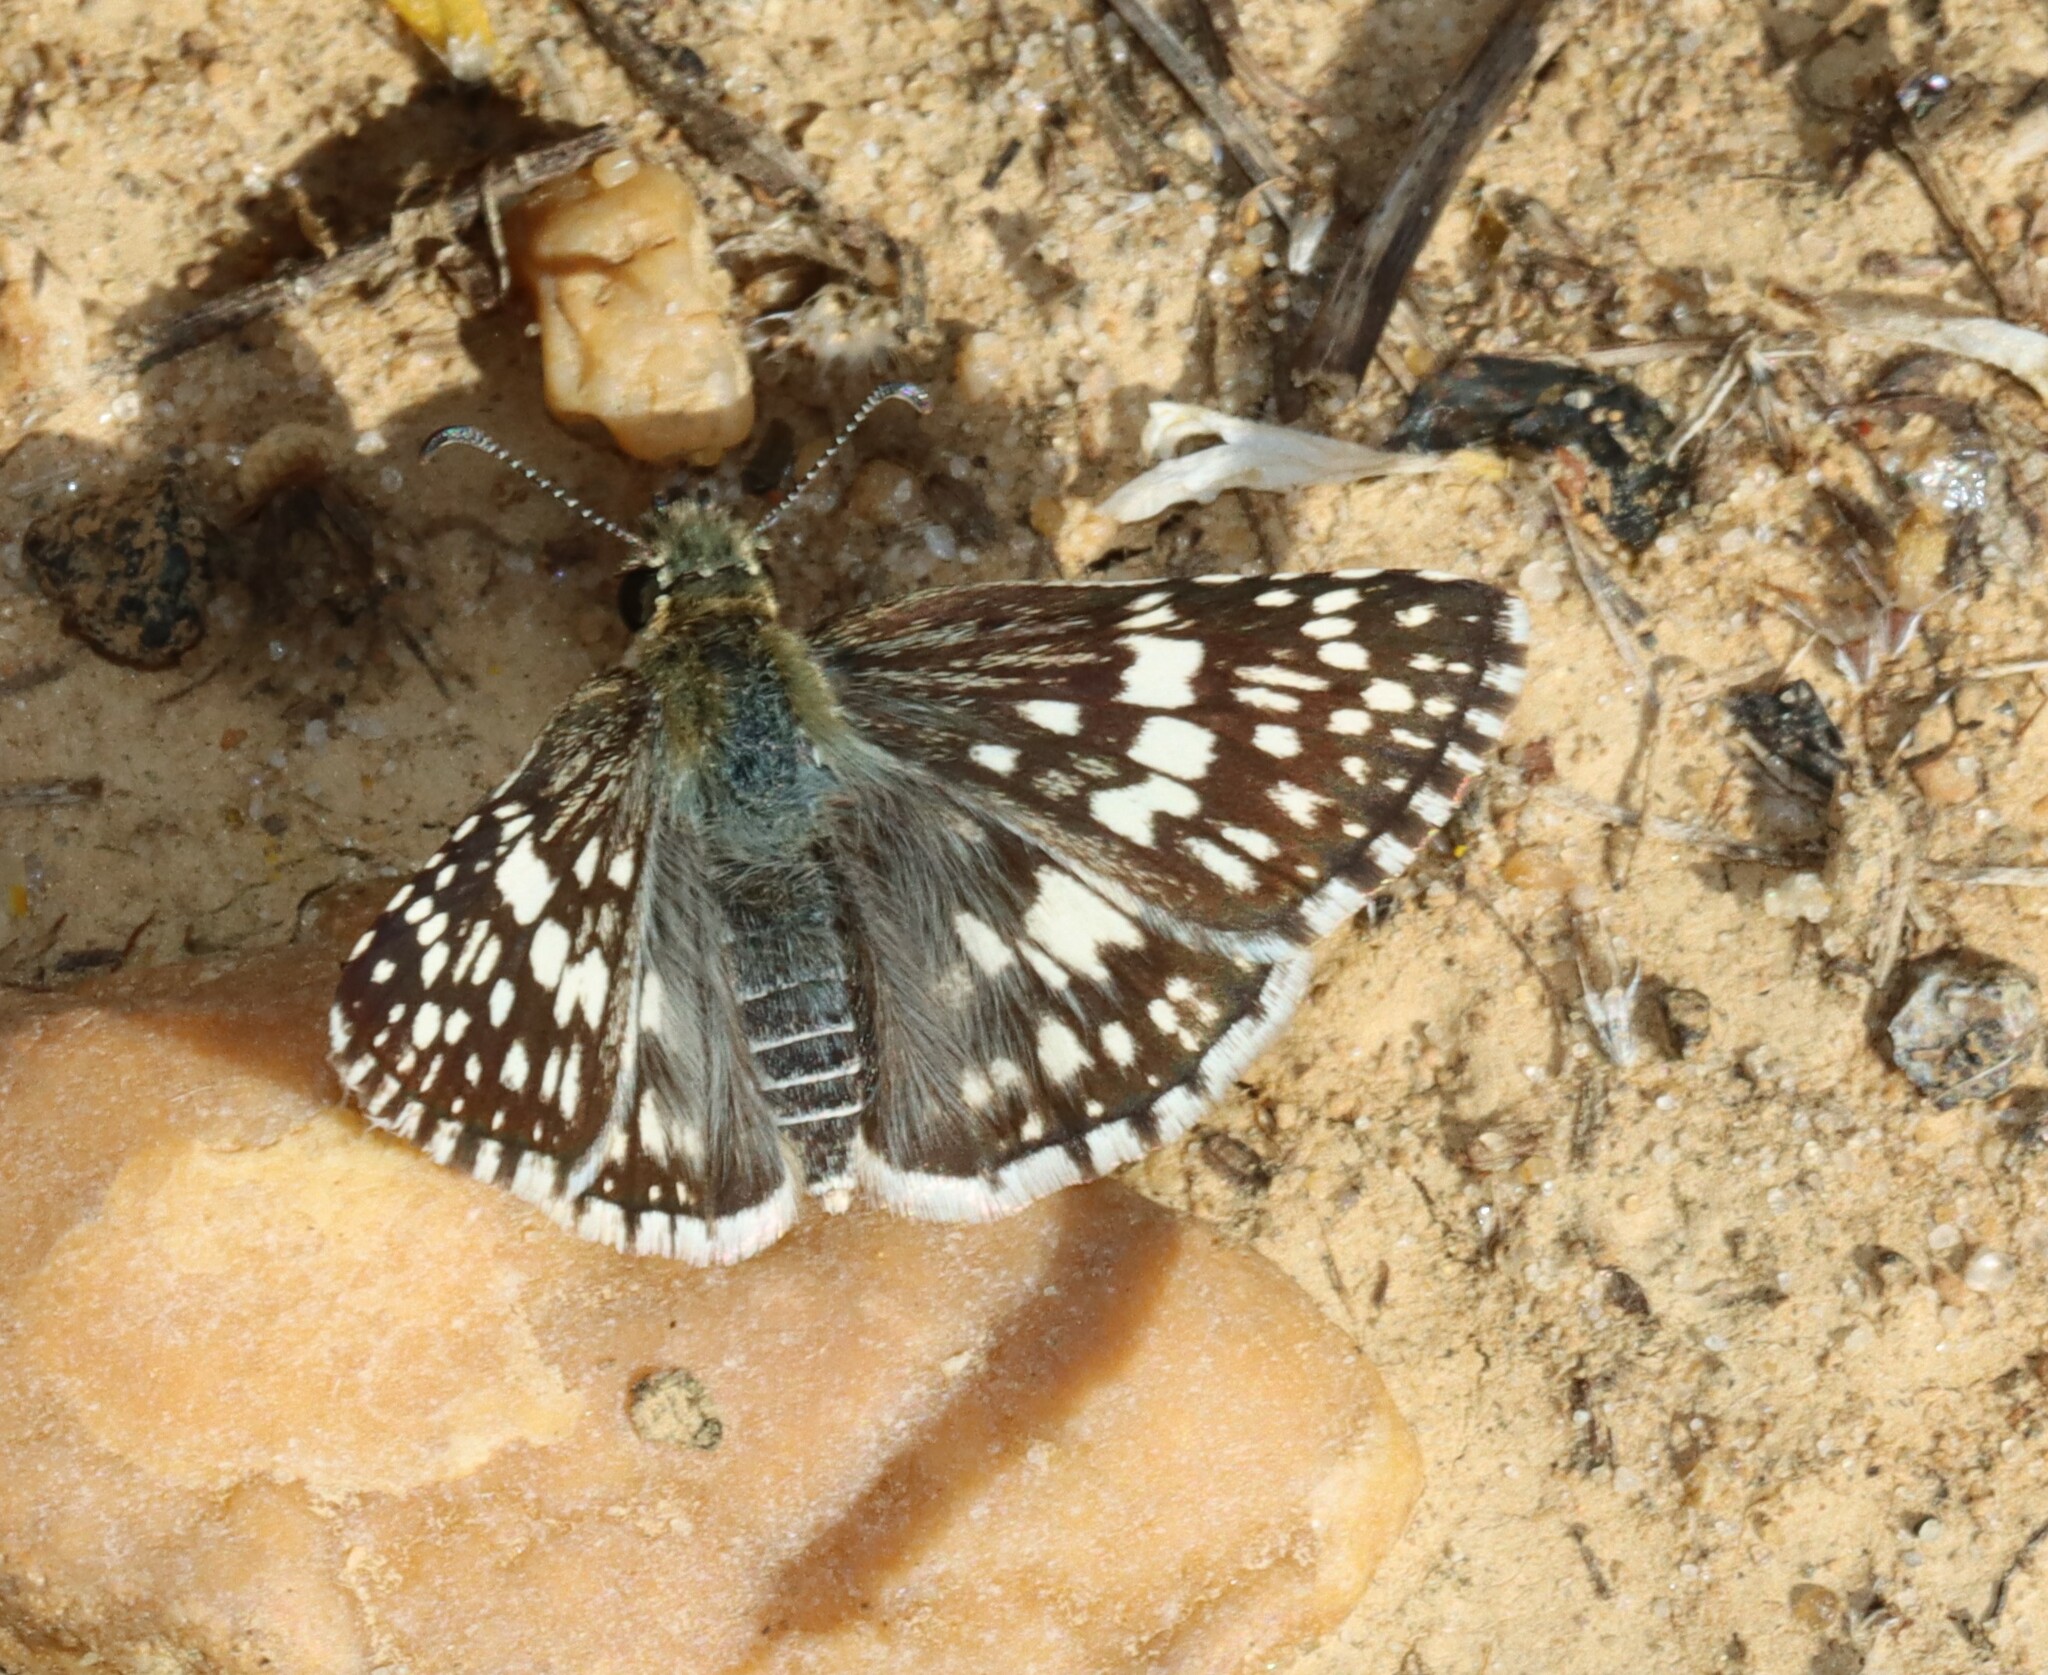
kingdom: Animalia
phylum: Arthropoda
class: Insecta
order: Lepidoptera
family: Hesperiidae
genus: Burnsius
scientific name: Burnsius communis
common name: Common checkered-skipper
